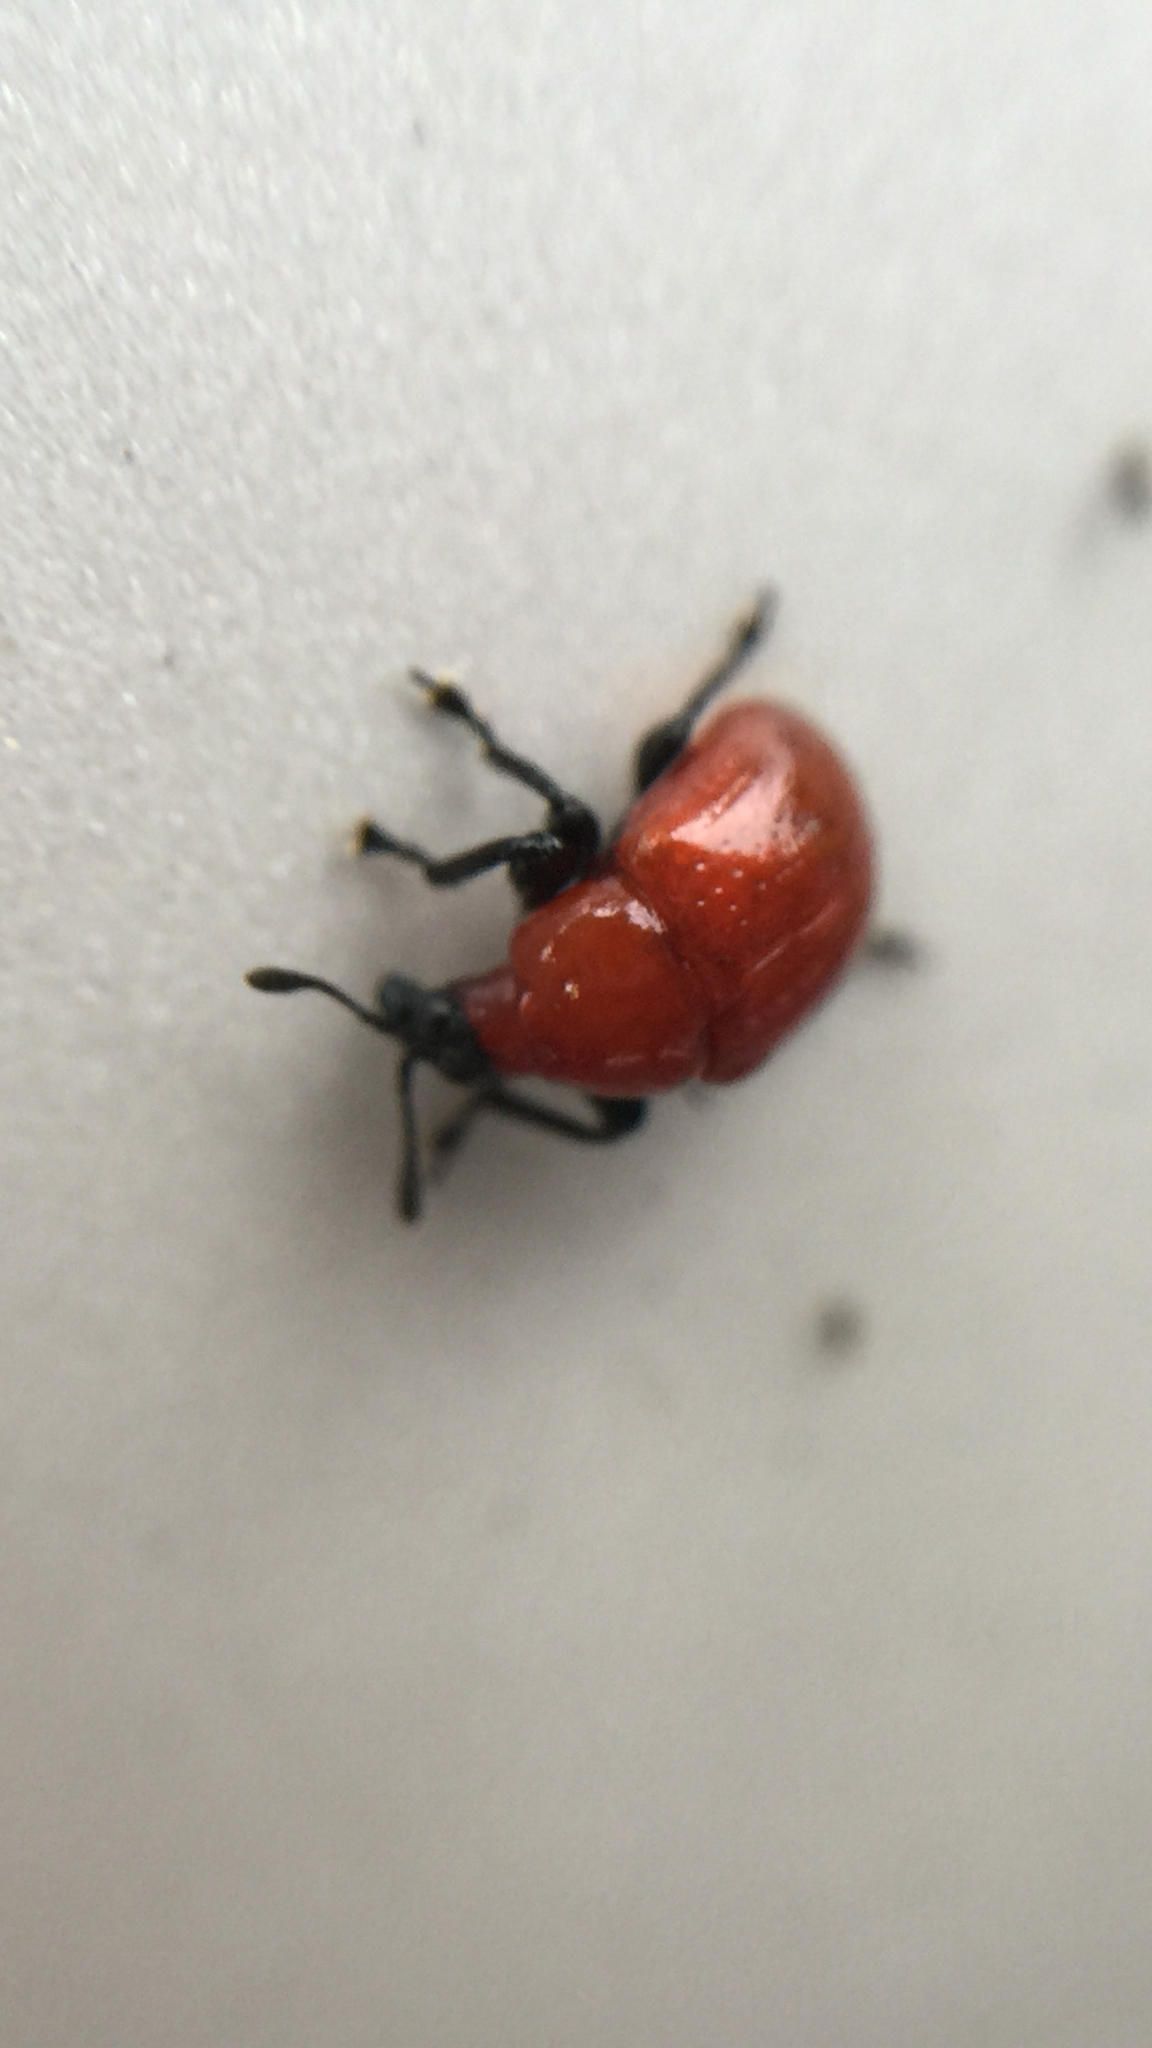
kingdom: Animalia
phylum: Arthropoda
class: Insecta
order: Coleoptera
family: Attelabidae
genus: Homoeolabus
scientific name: Homoeolabus analis
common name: Oak leaf rolling weevil
